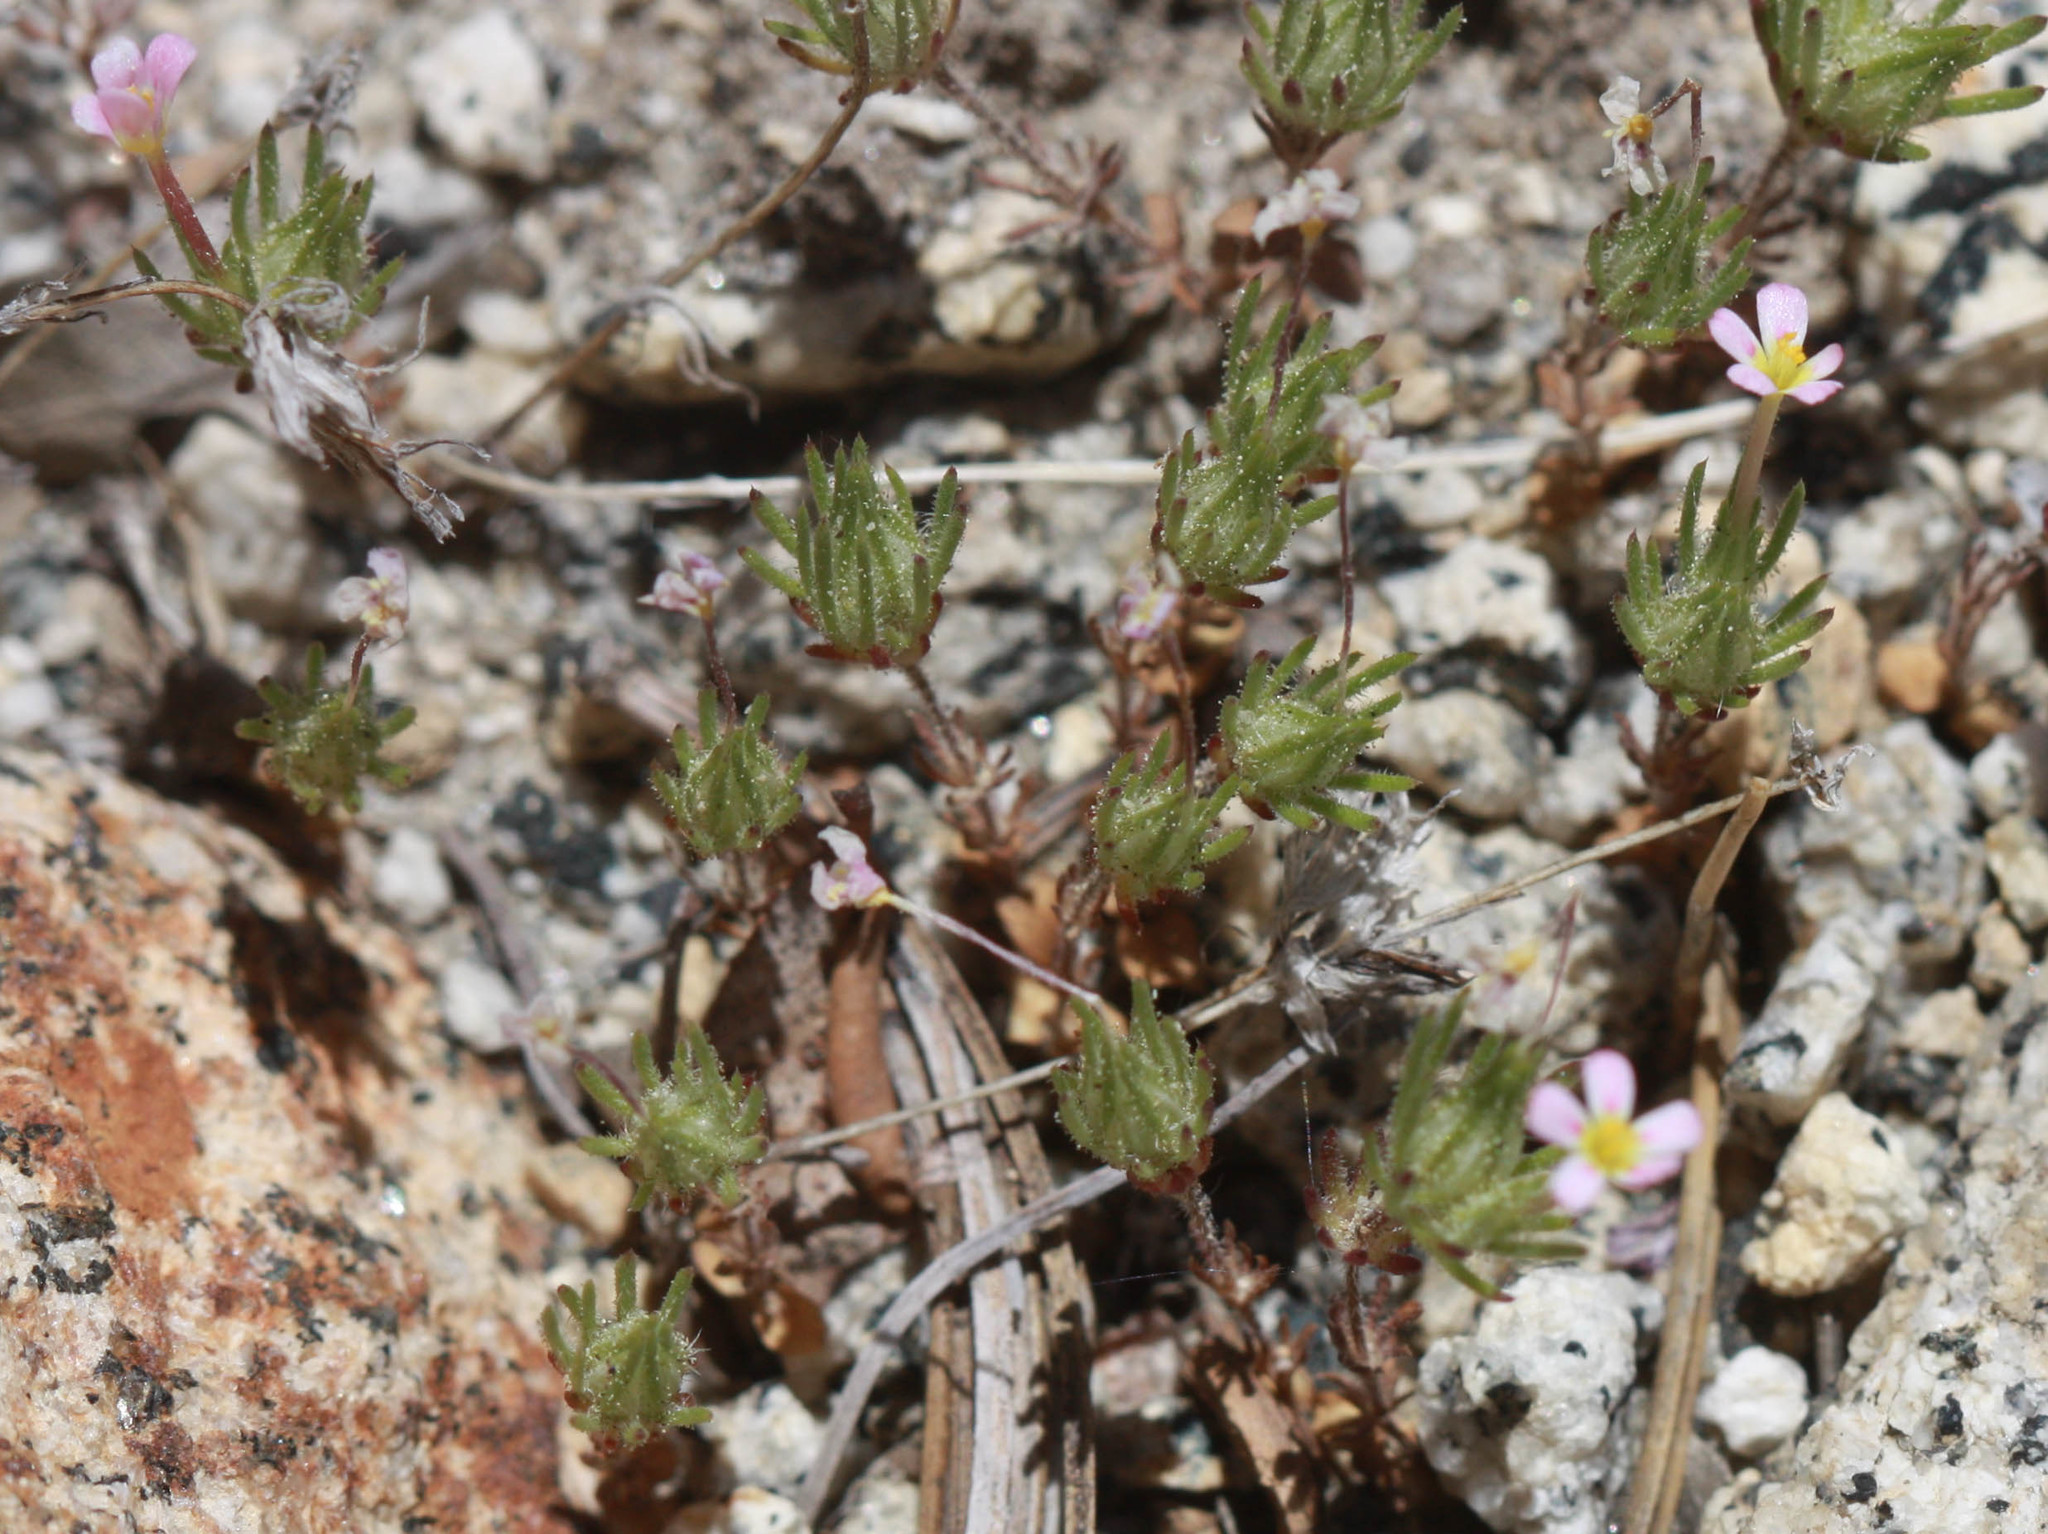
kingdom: Plantae
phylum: Tracheophyta
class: Magnoliopsida
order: Ericales
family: Polemoniaceae
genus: Leptosiphon
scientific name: Leptosiphon ciliatus
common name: Whiskerbrush
